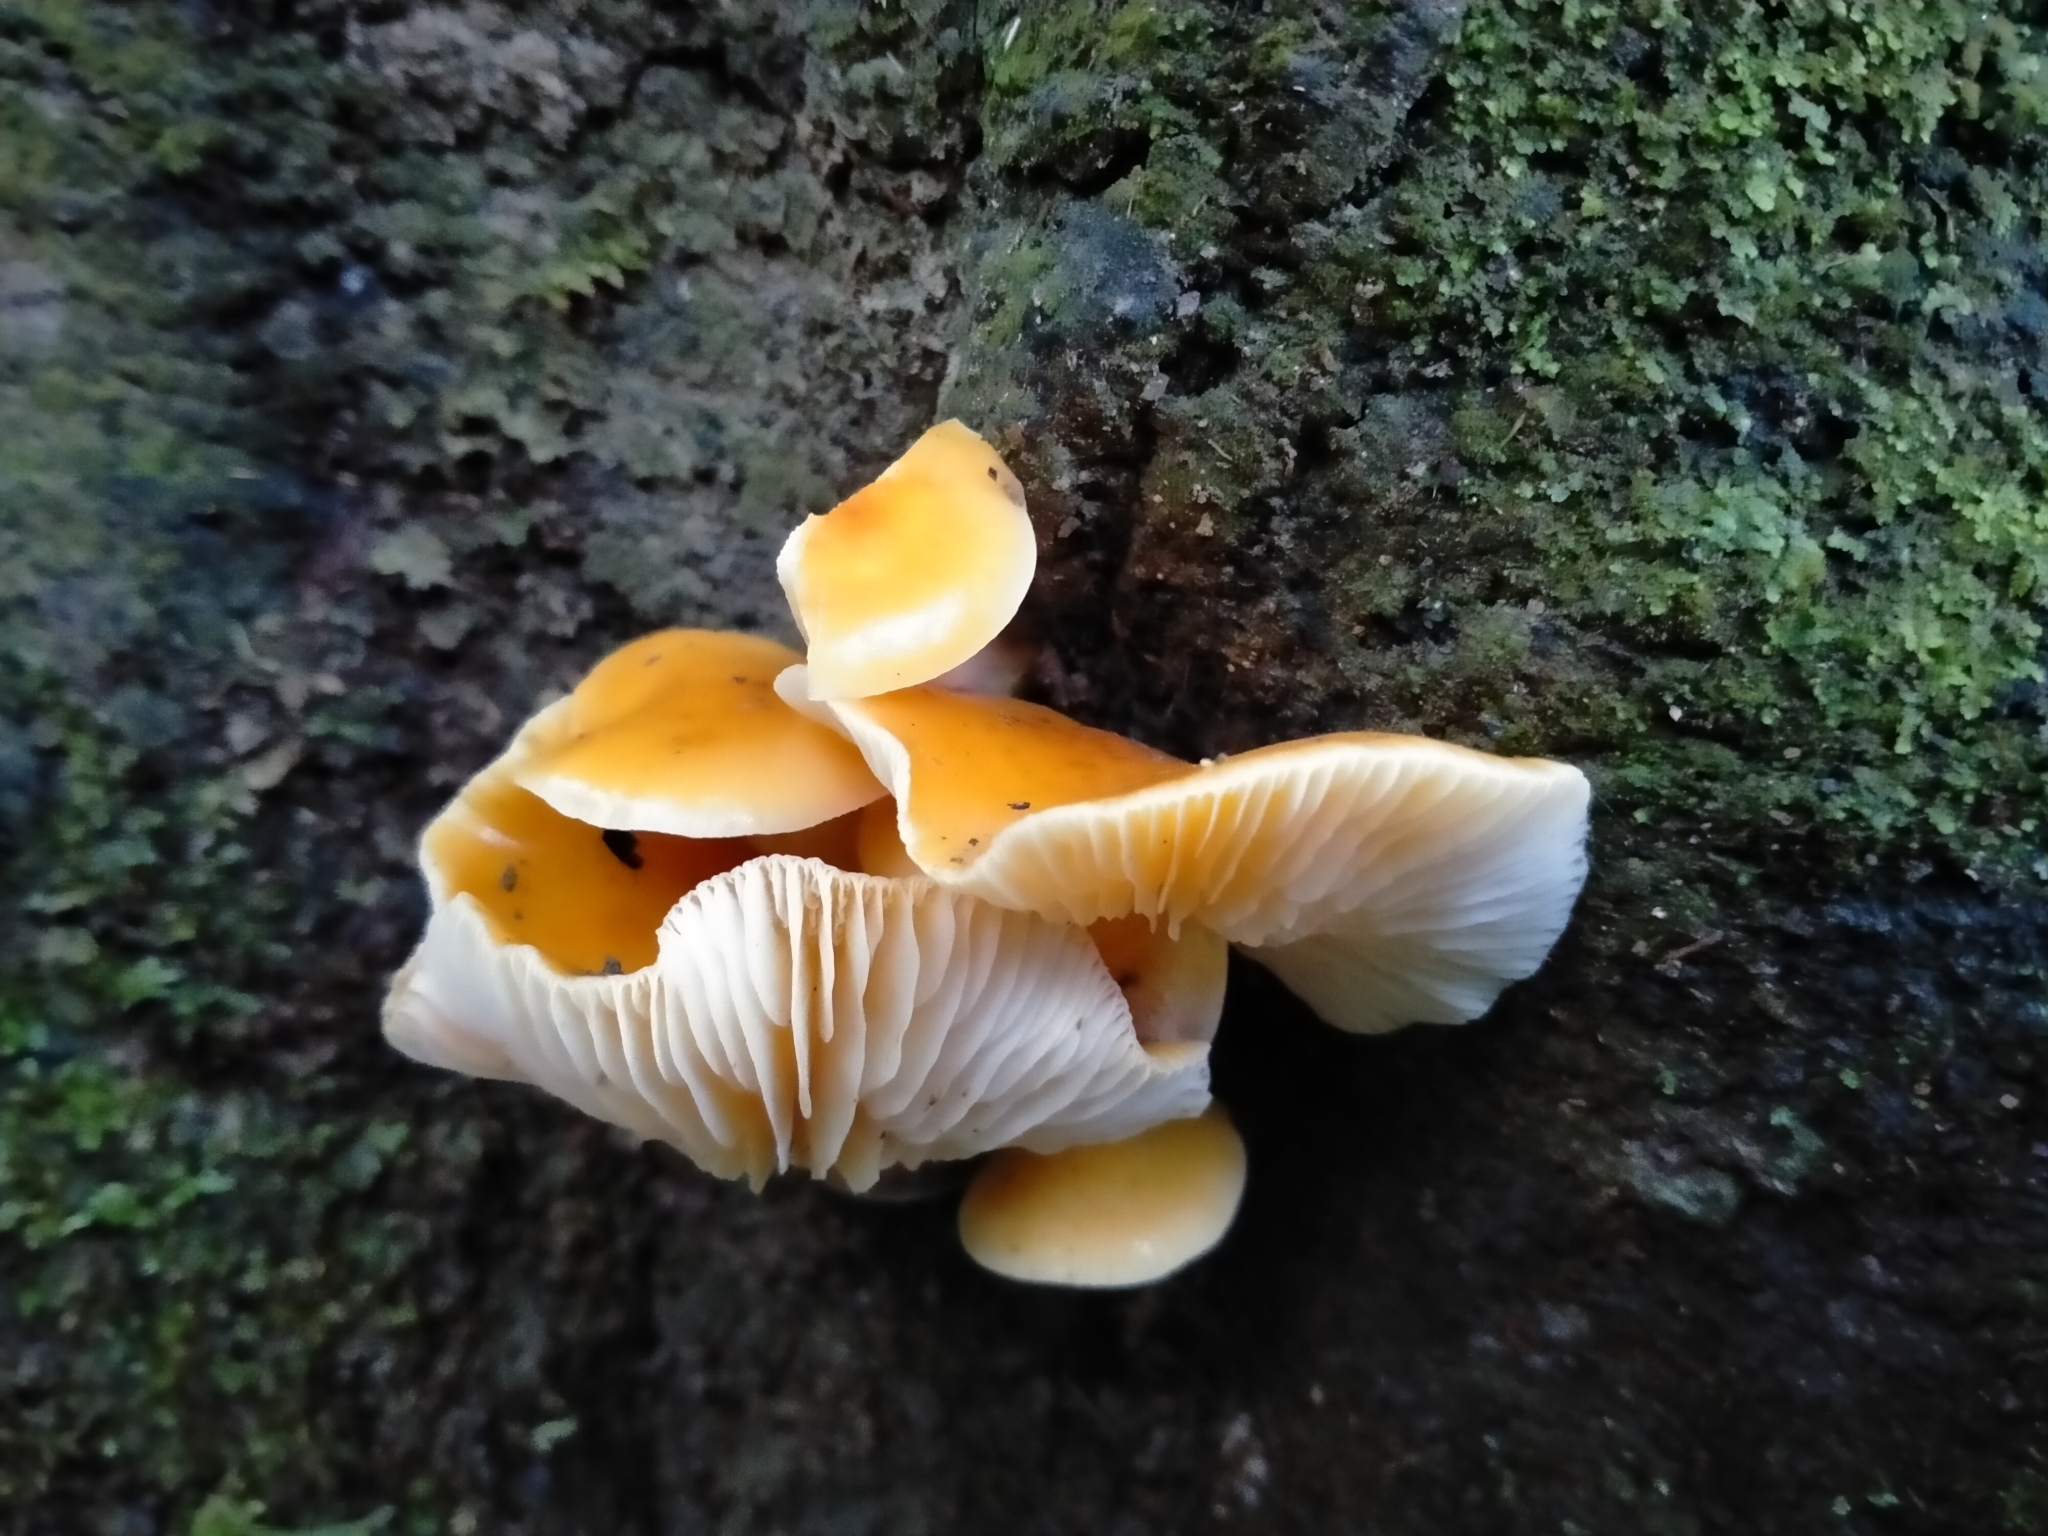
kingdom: Fungi
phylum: Basidiomycota
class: Agaricomycetes
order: Agaricales
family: Physalacriaceae
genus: Flammulina
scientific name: Flammulina velutipes
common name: Velvet shank
